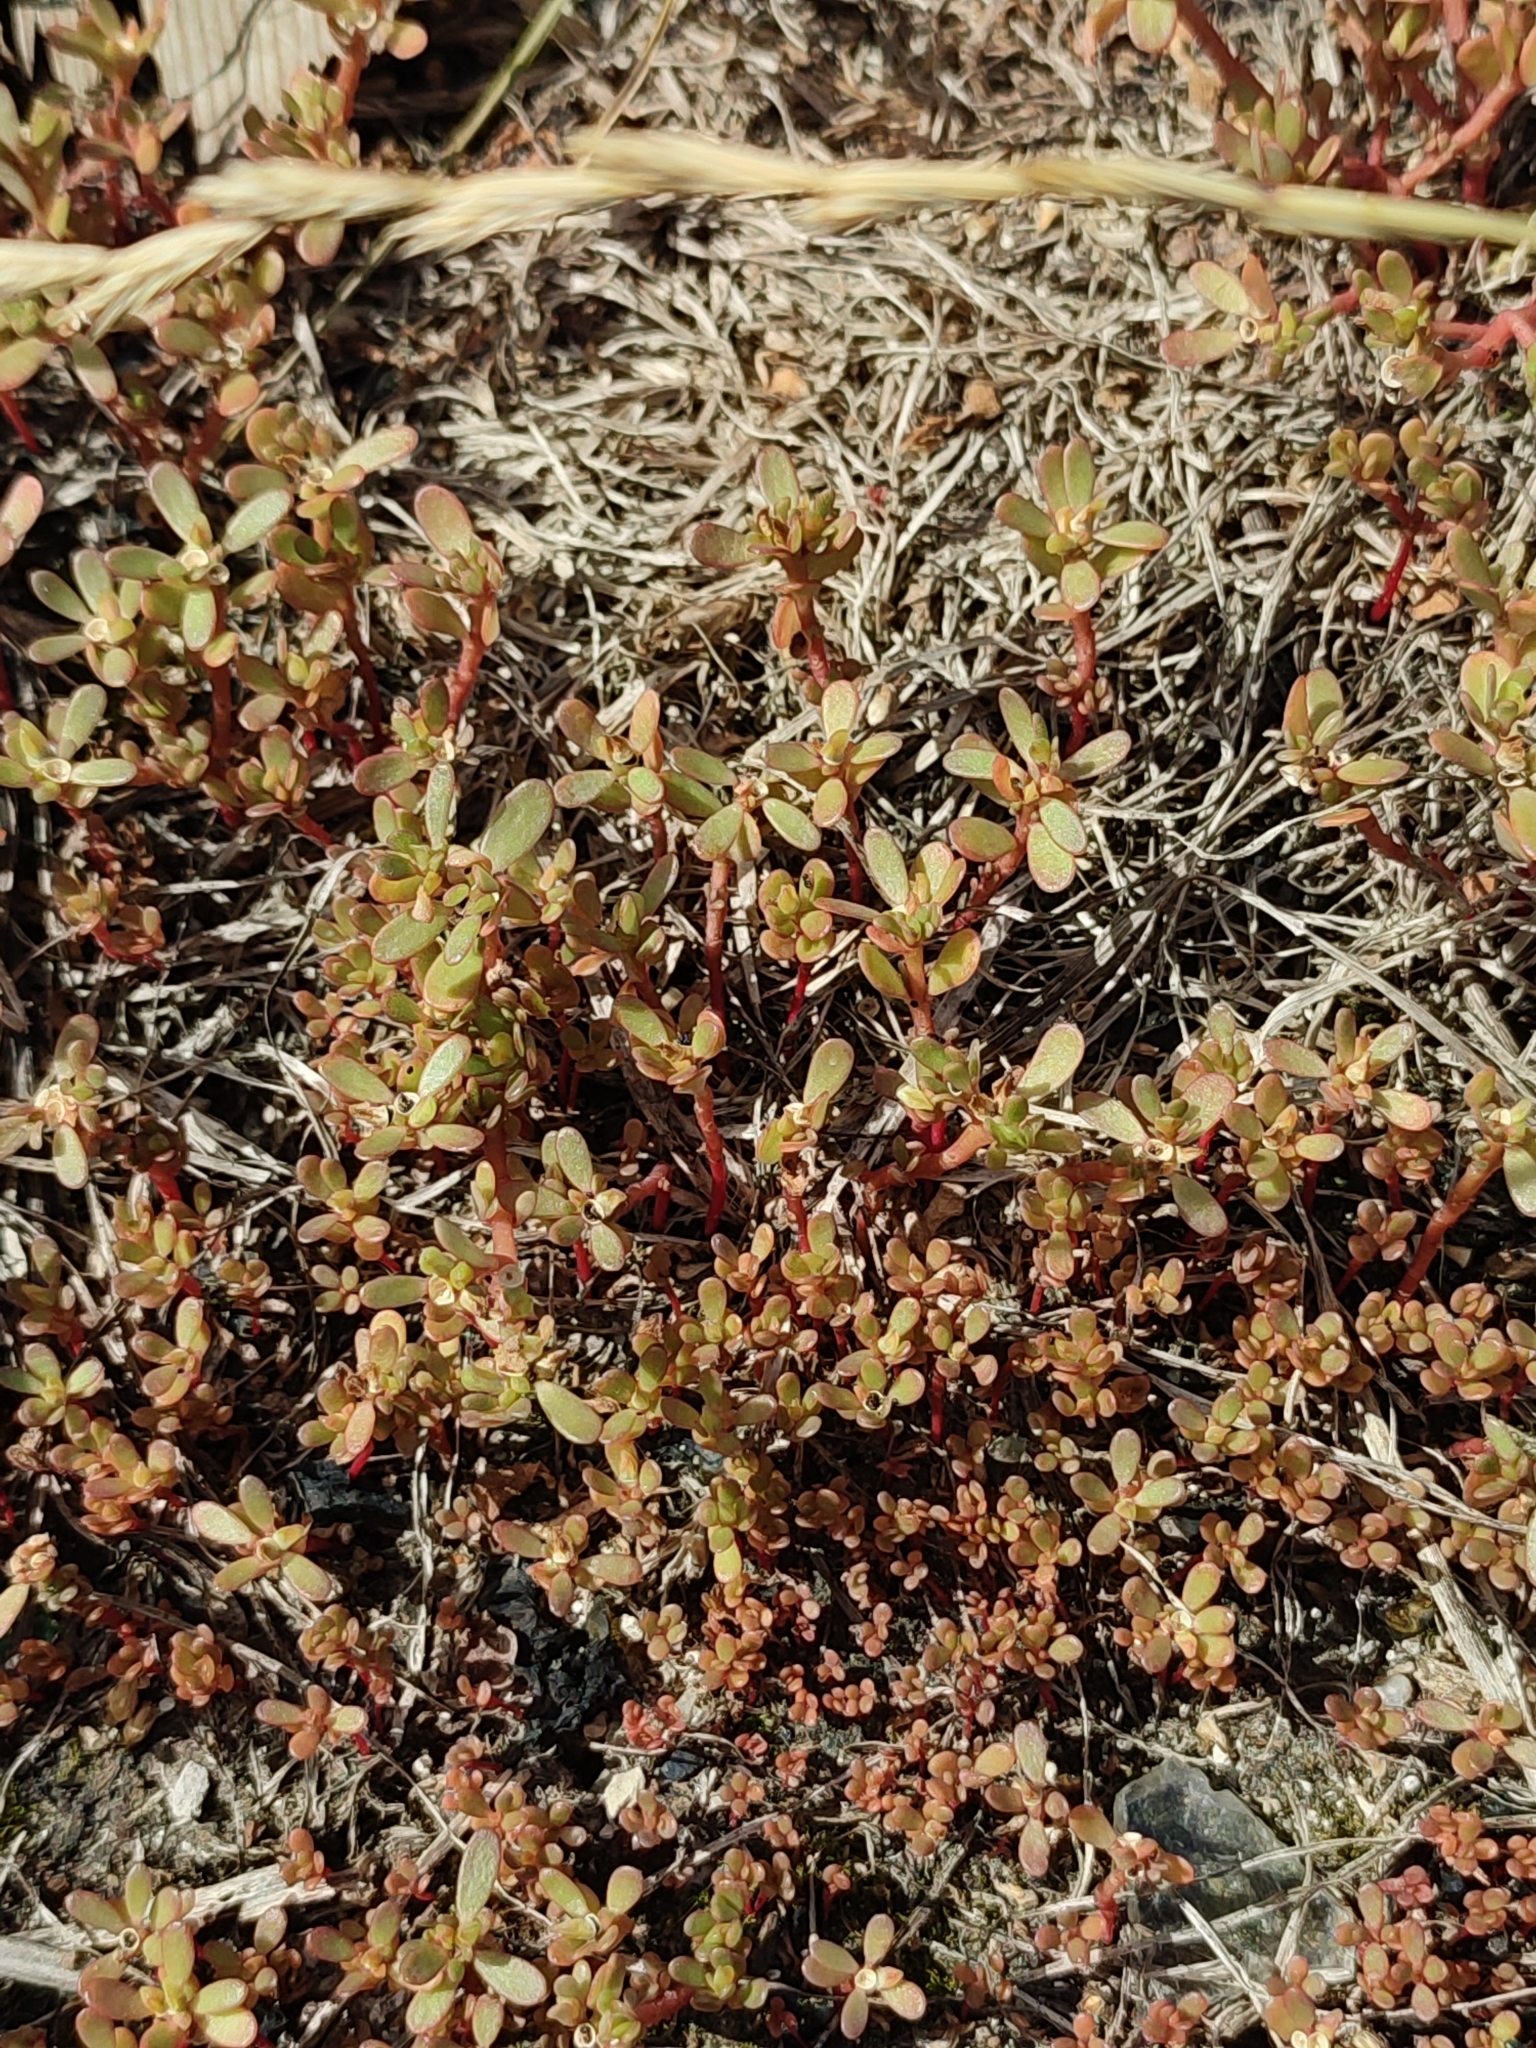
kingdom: Plantae
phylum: Tracheophyta
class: Magnoliopsida
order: Caryophyllales
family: Portulacaceae
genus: Portulaca
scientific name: Portulaca oleracea
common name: Common purslane
